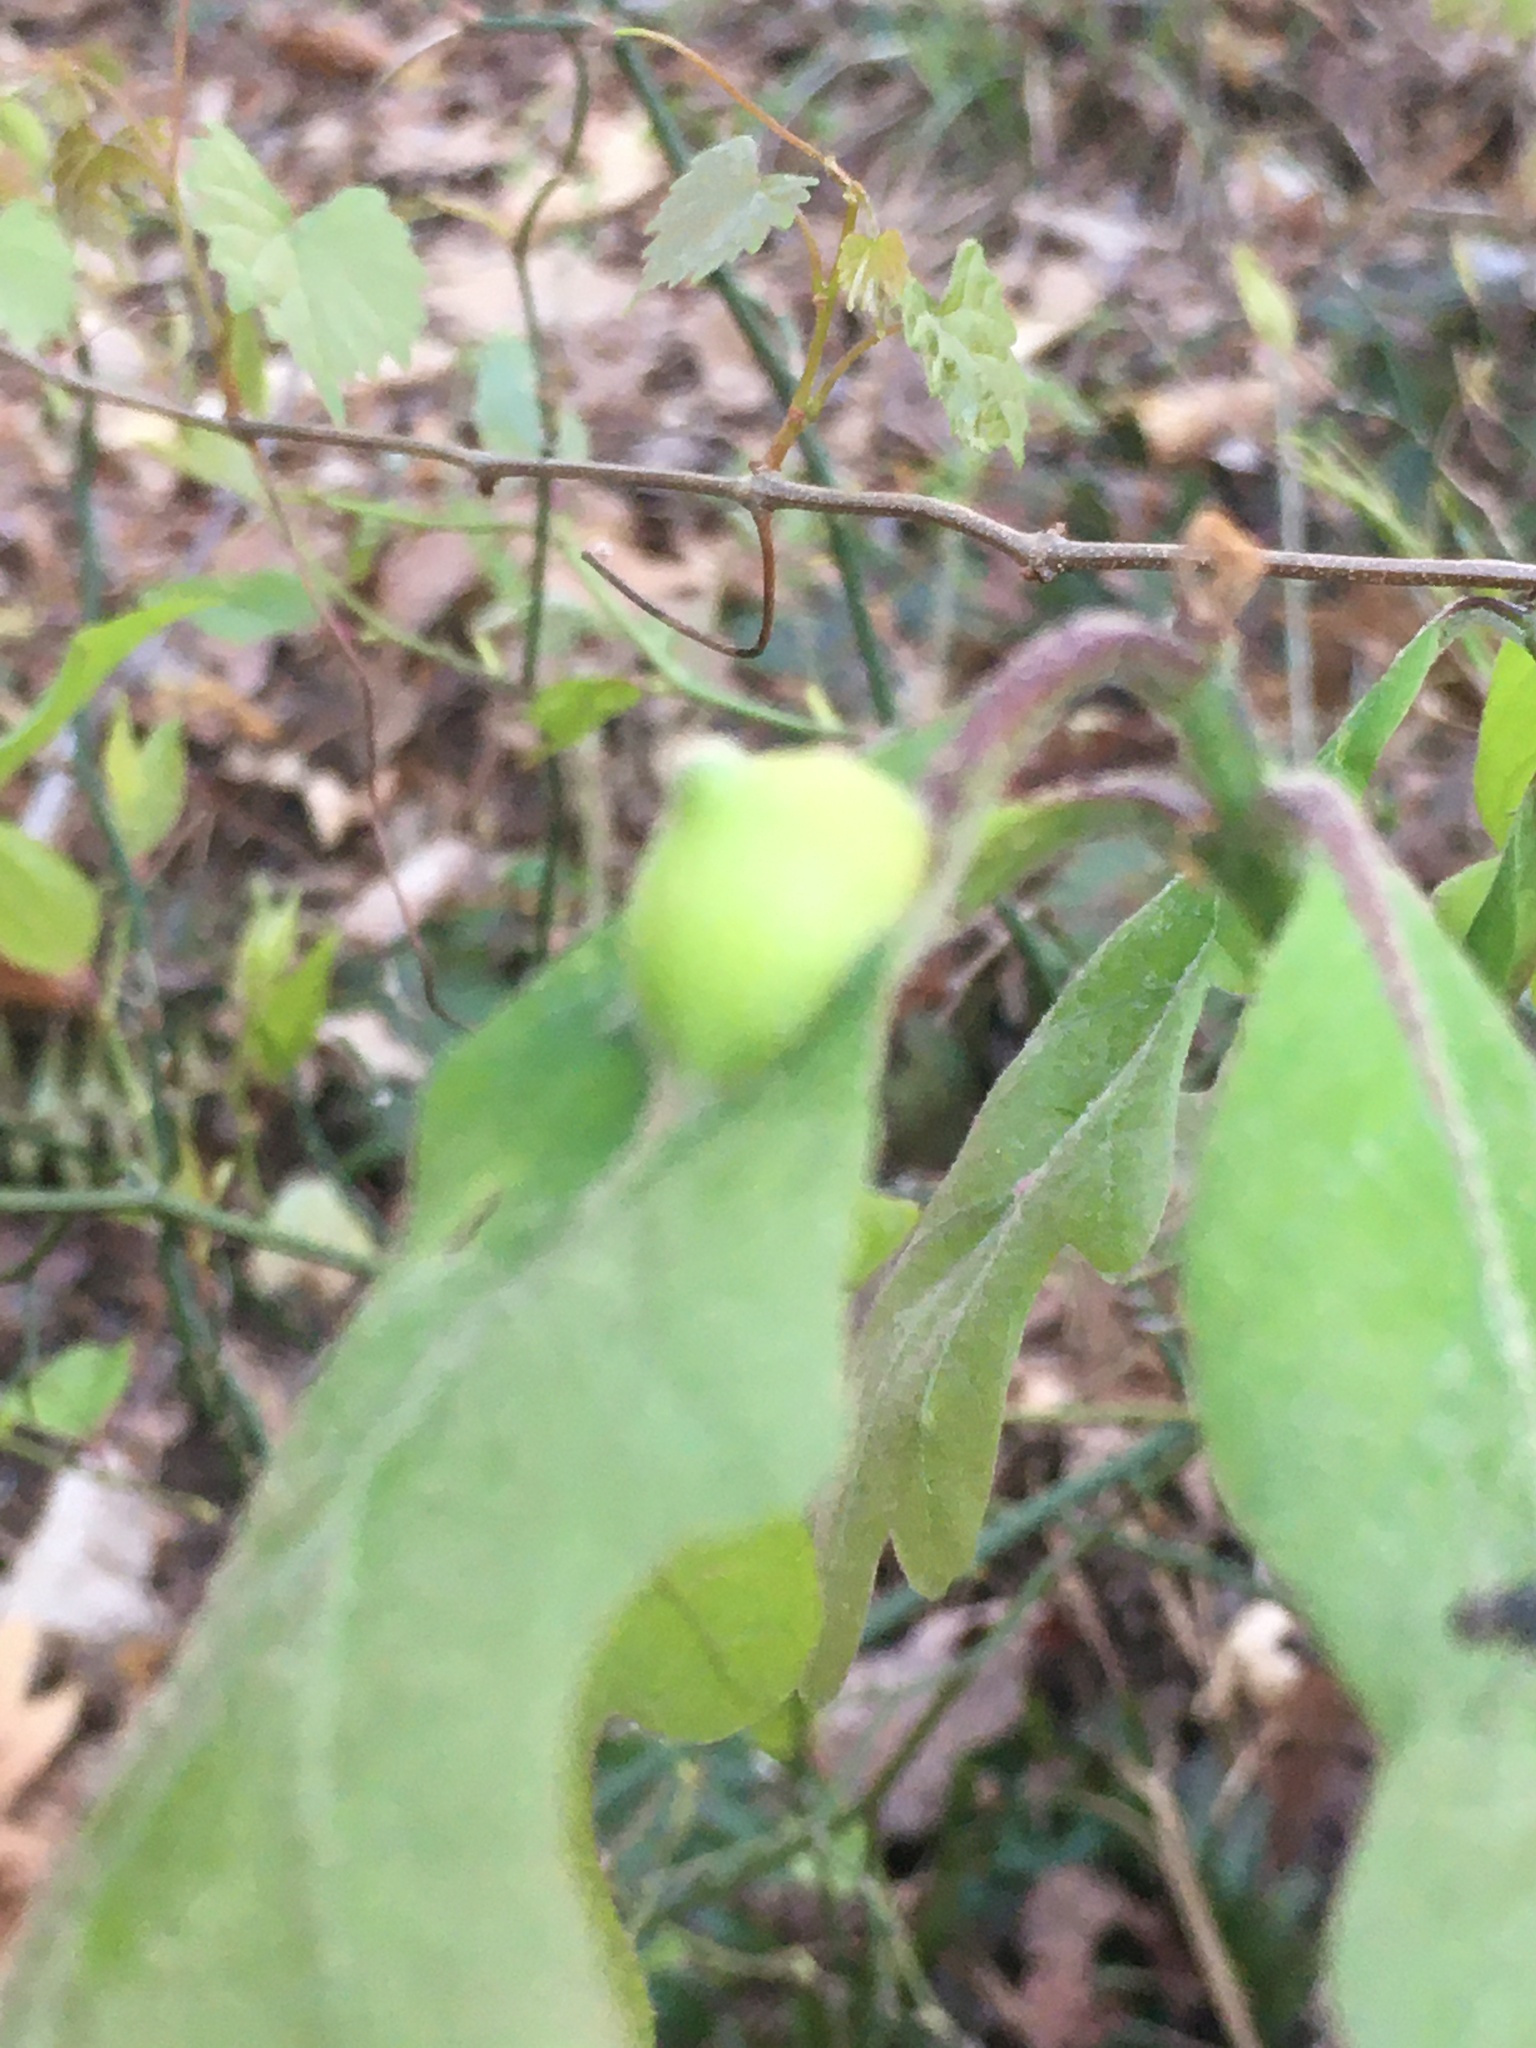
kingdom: Animalia
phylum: Arthropoda
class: Insecta
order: Hymenoptera
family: Cynipidae
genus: Andricus
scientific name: Andricus
